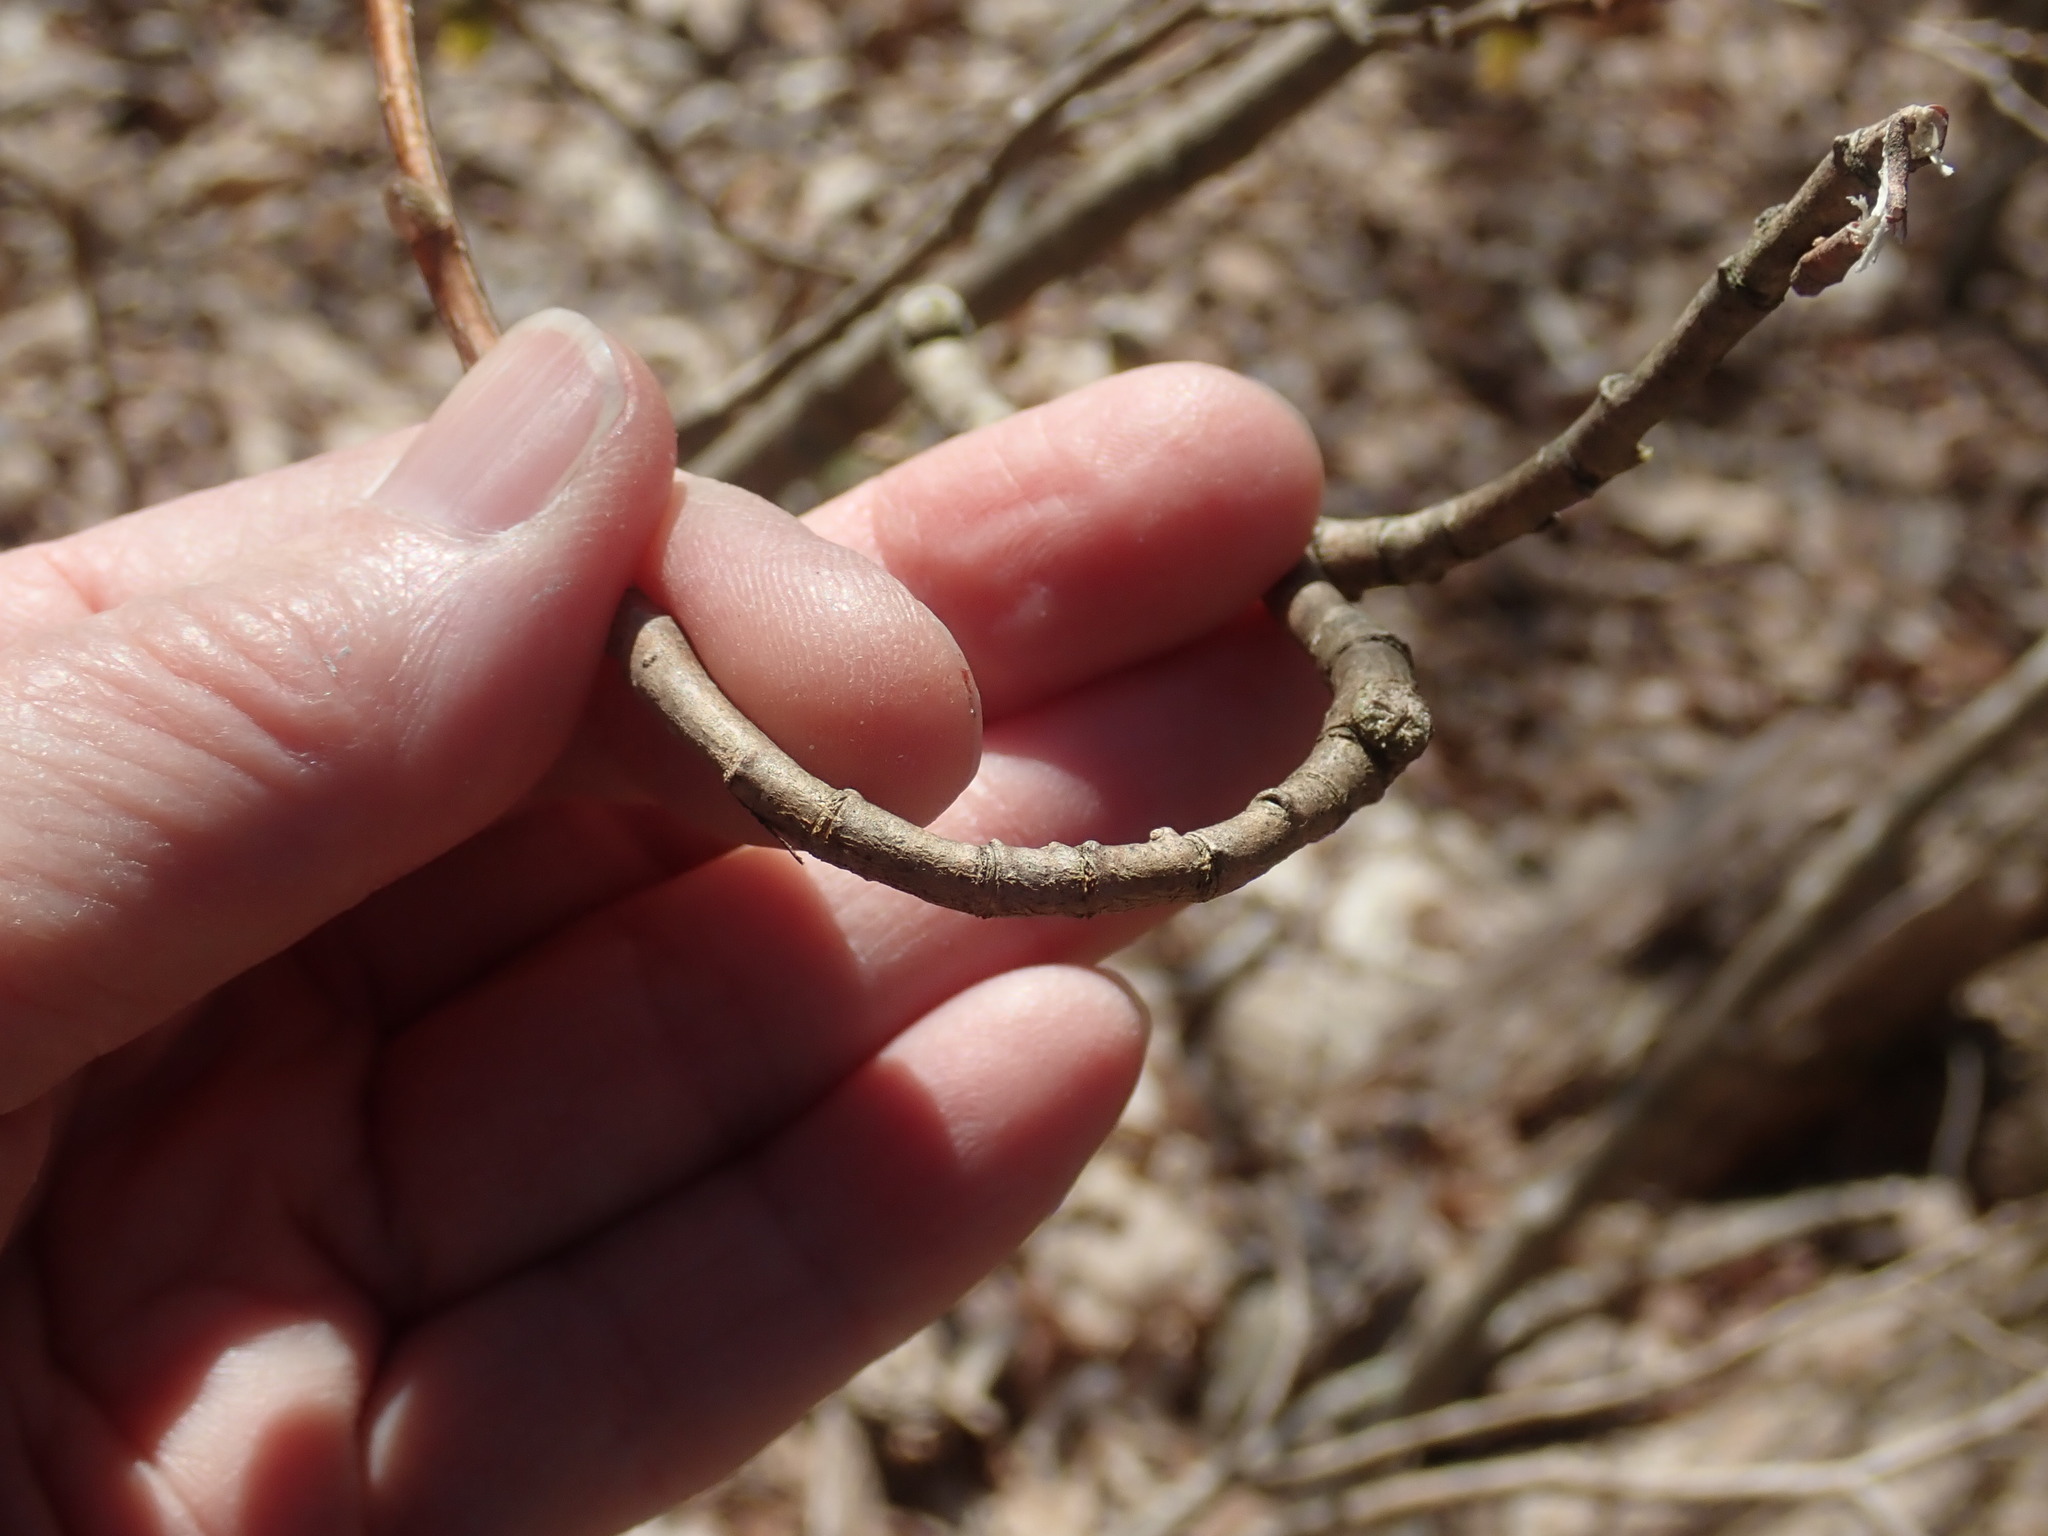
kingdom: Plantae
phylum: Tracheophyta
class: Magnoliopsida
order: Malvales
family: Thymelaeaceae
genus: Dirca
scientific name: Dirca palustris
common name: Leatherwood
